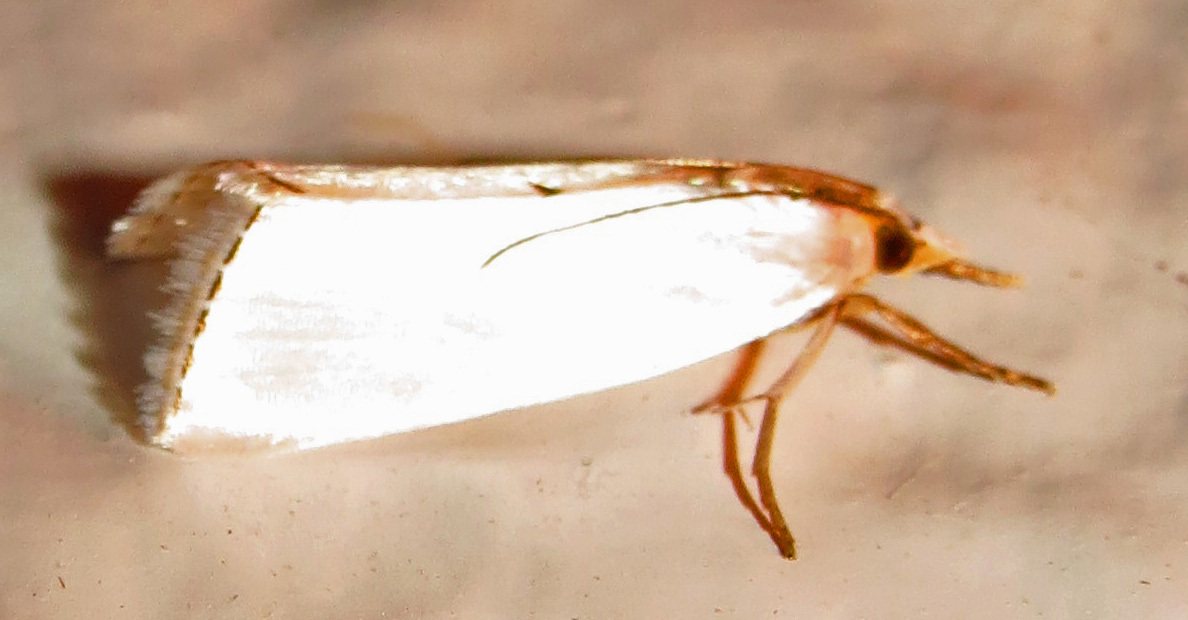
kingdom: Animalia
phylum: Arthropoda
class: Insecta
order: Lepidoptera
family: Crambidae
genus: Argyria
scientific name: Argyria nivalis
